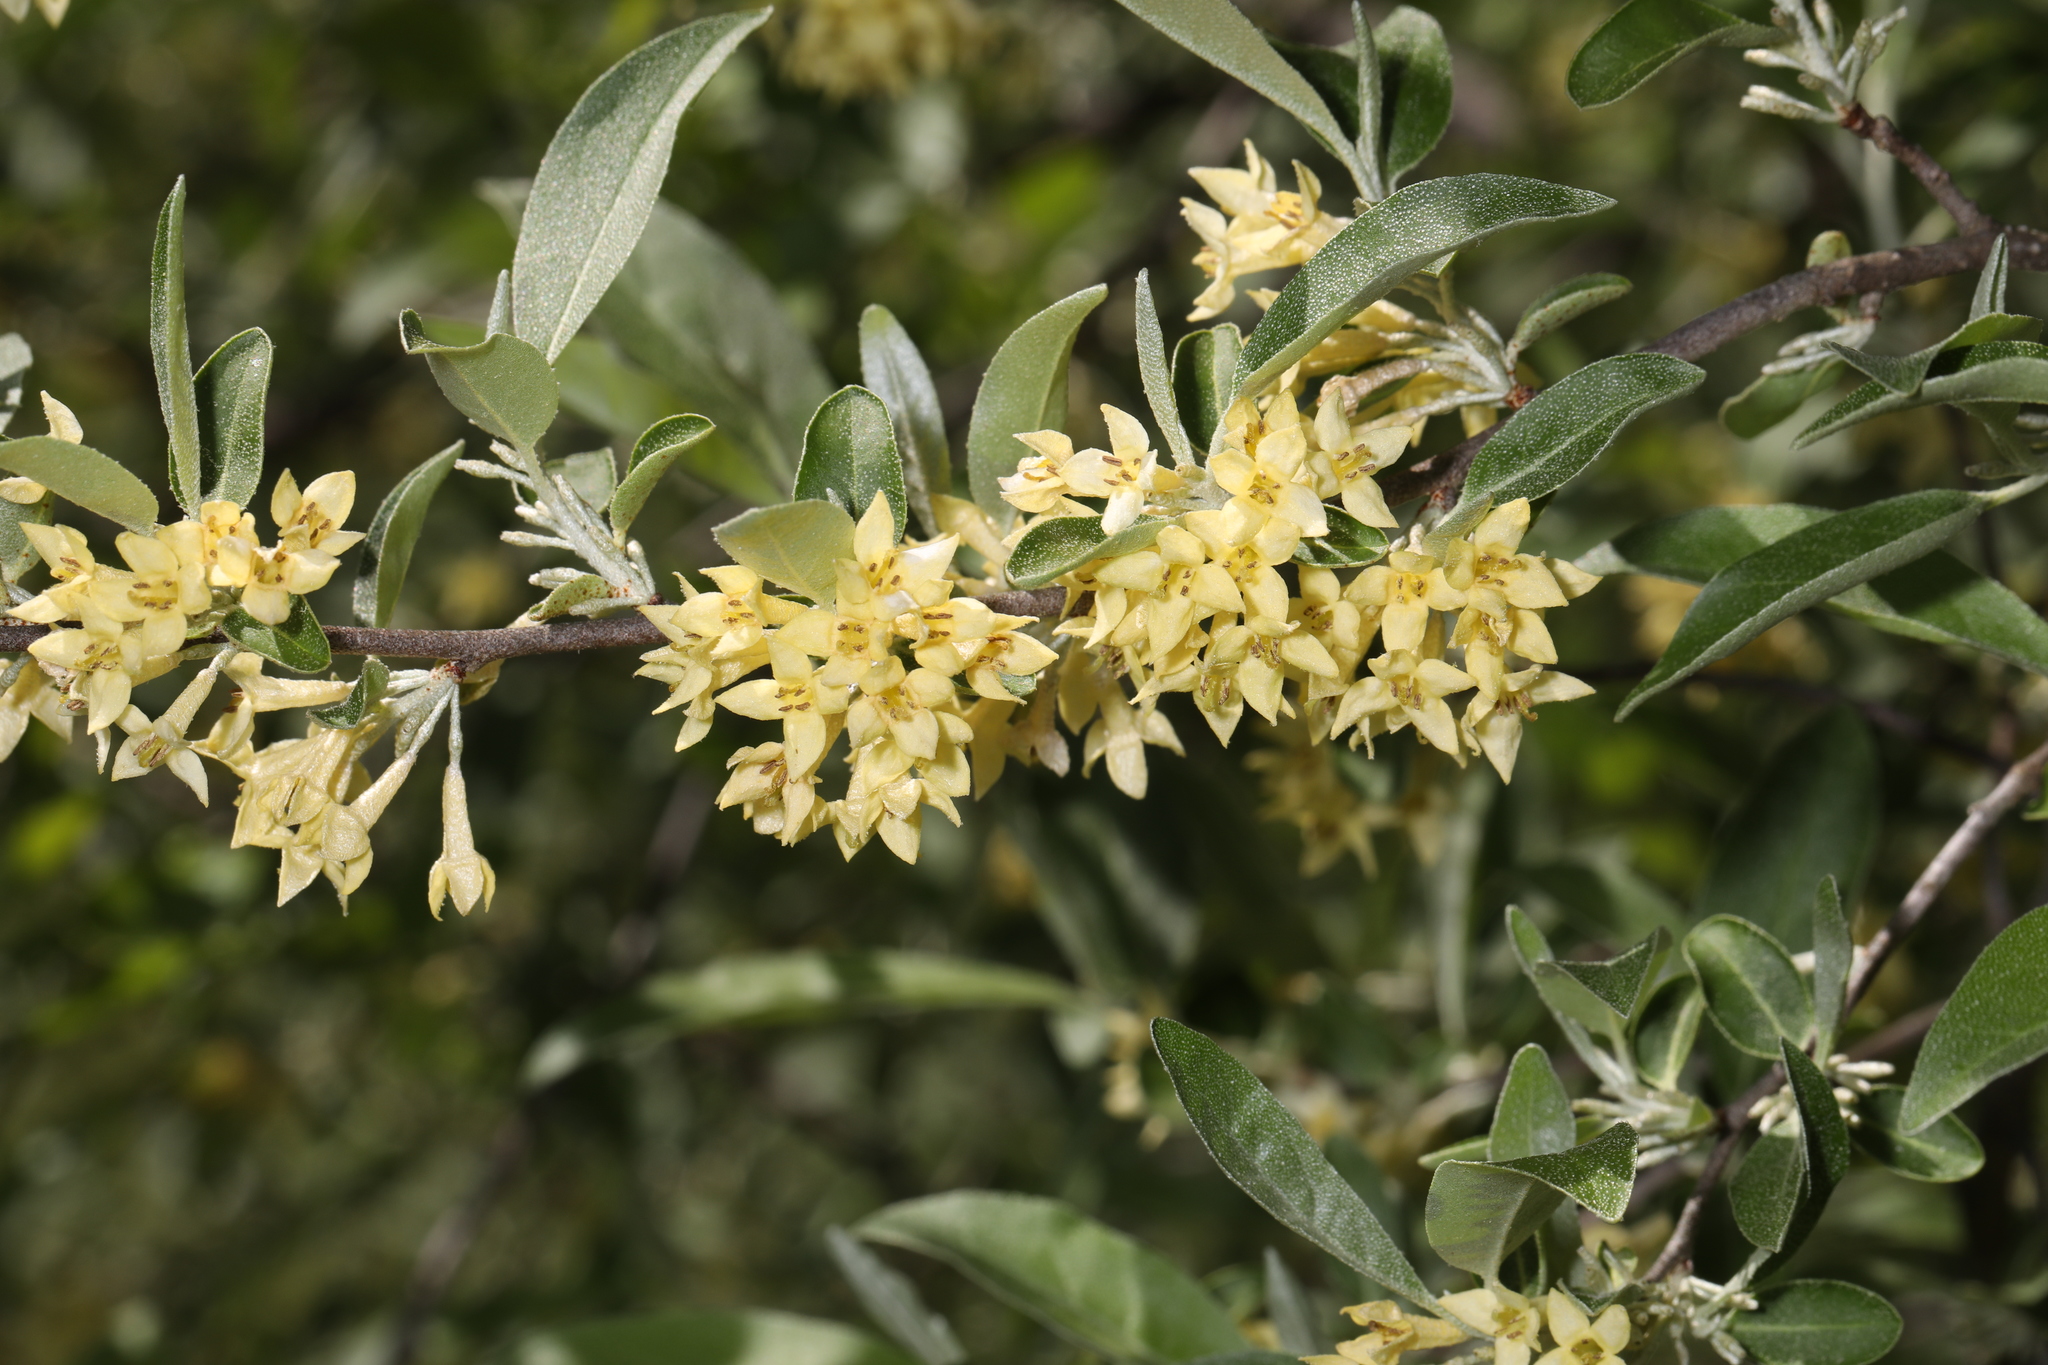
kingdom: Plantae
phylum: Tracheophyta
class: Magnoliopsida
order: Rosales
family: Elaeagnaceae
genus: Elaeagnus
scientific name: Elaeagnus umbellata
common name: Autumn olive
